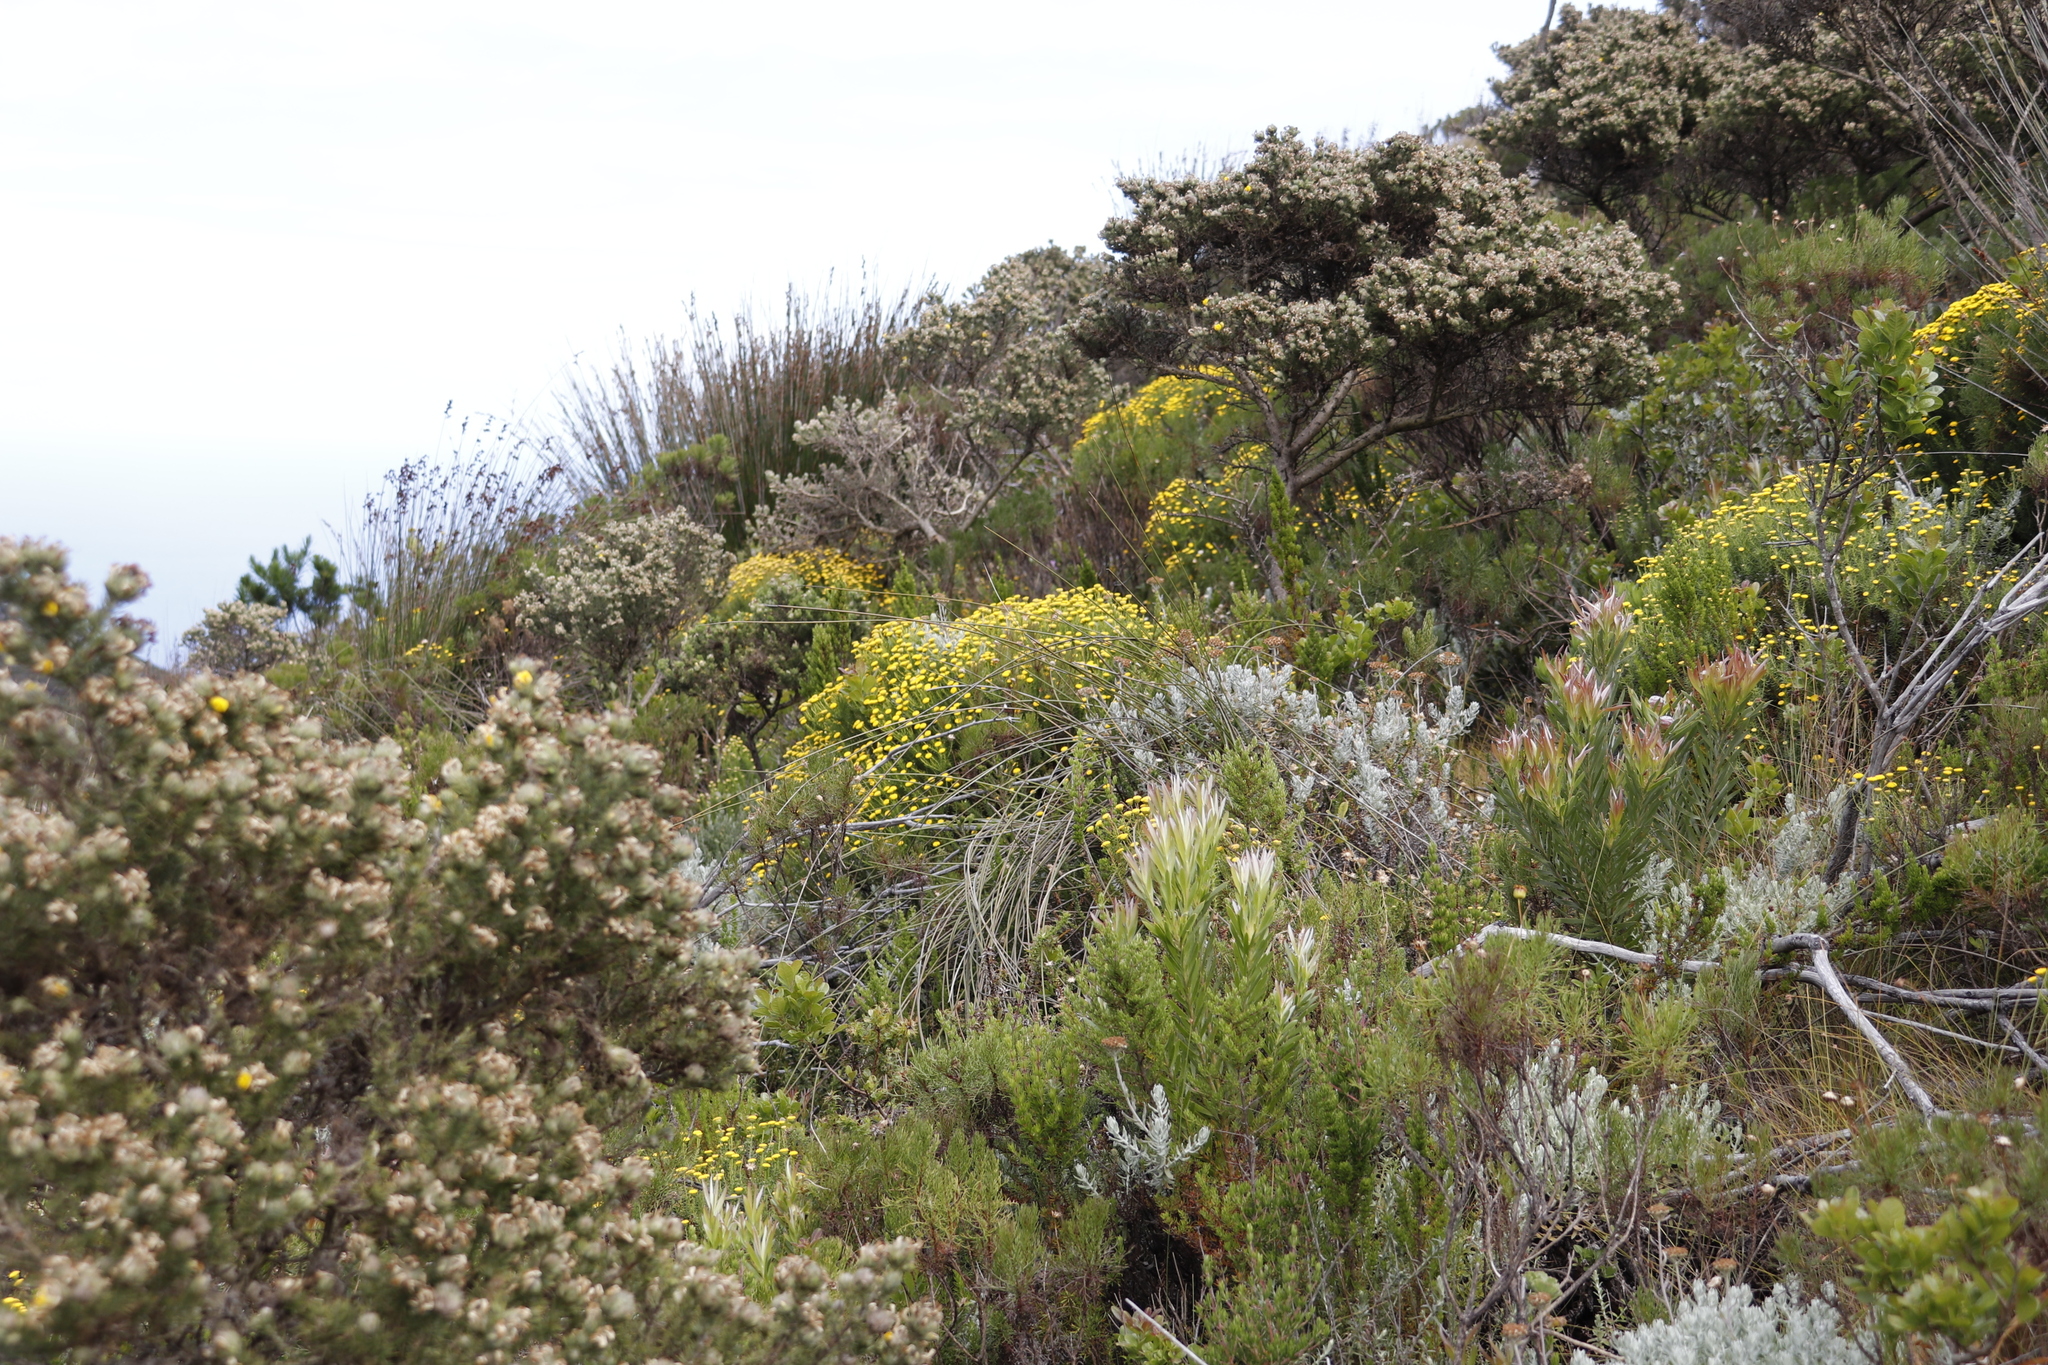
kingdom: Plantae
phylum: Tracheophyta
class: Magnoliopsida
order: Asterales
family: Asteraceae
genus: Chrysocoma
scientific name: Chrysocoma cernua
